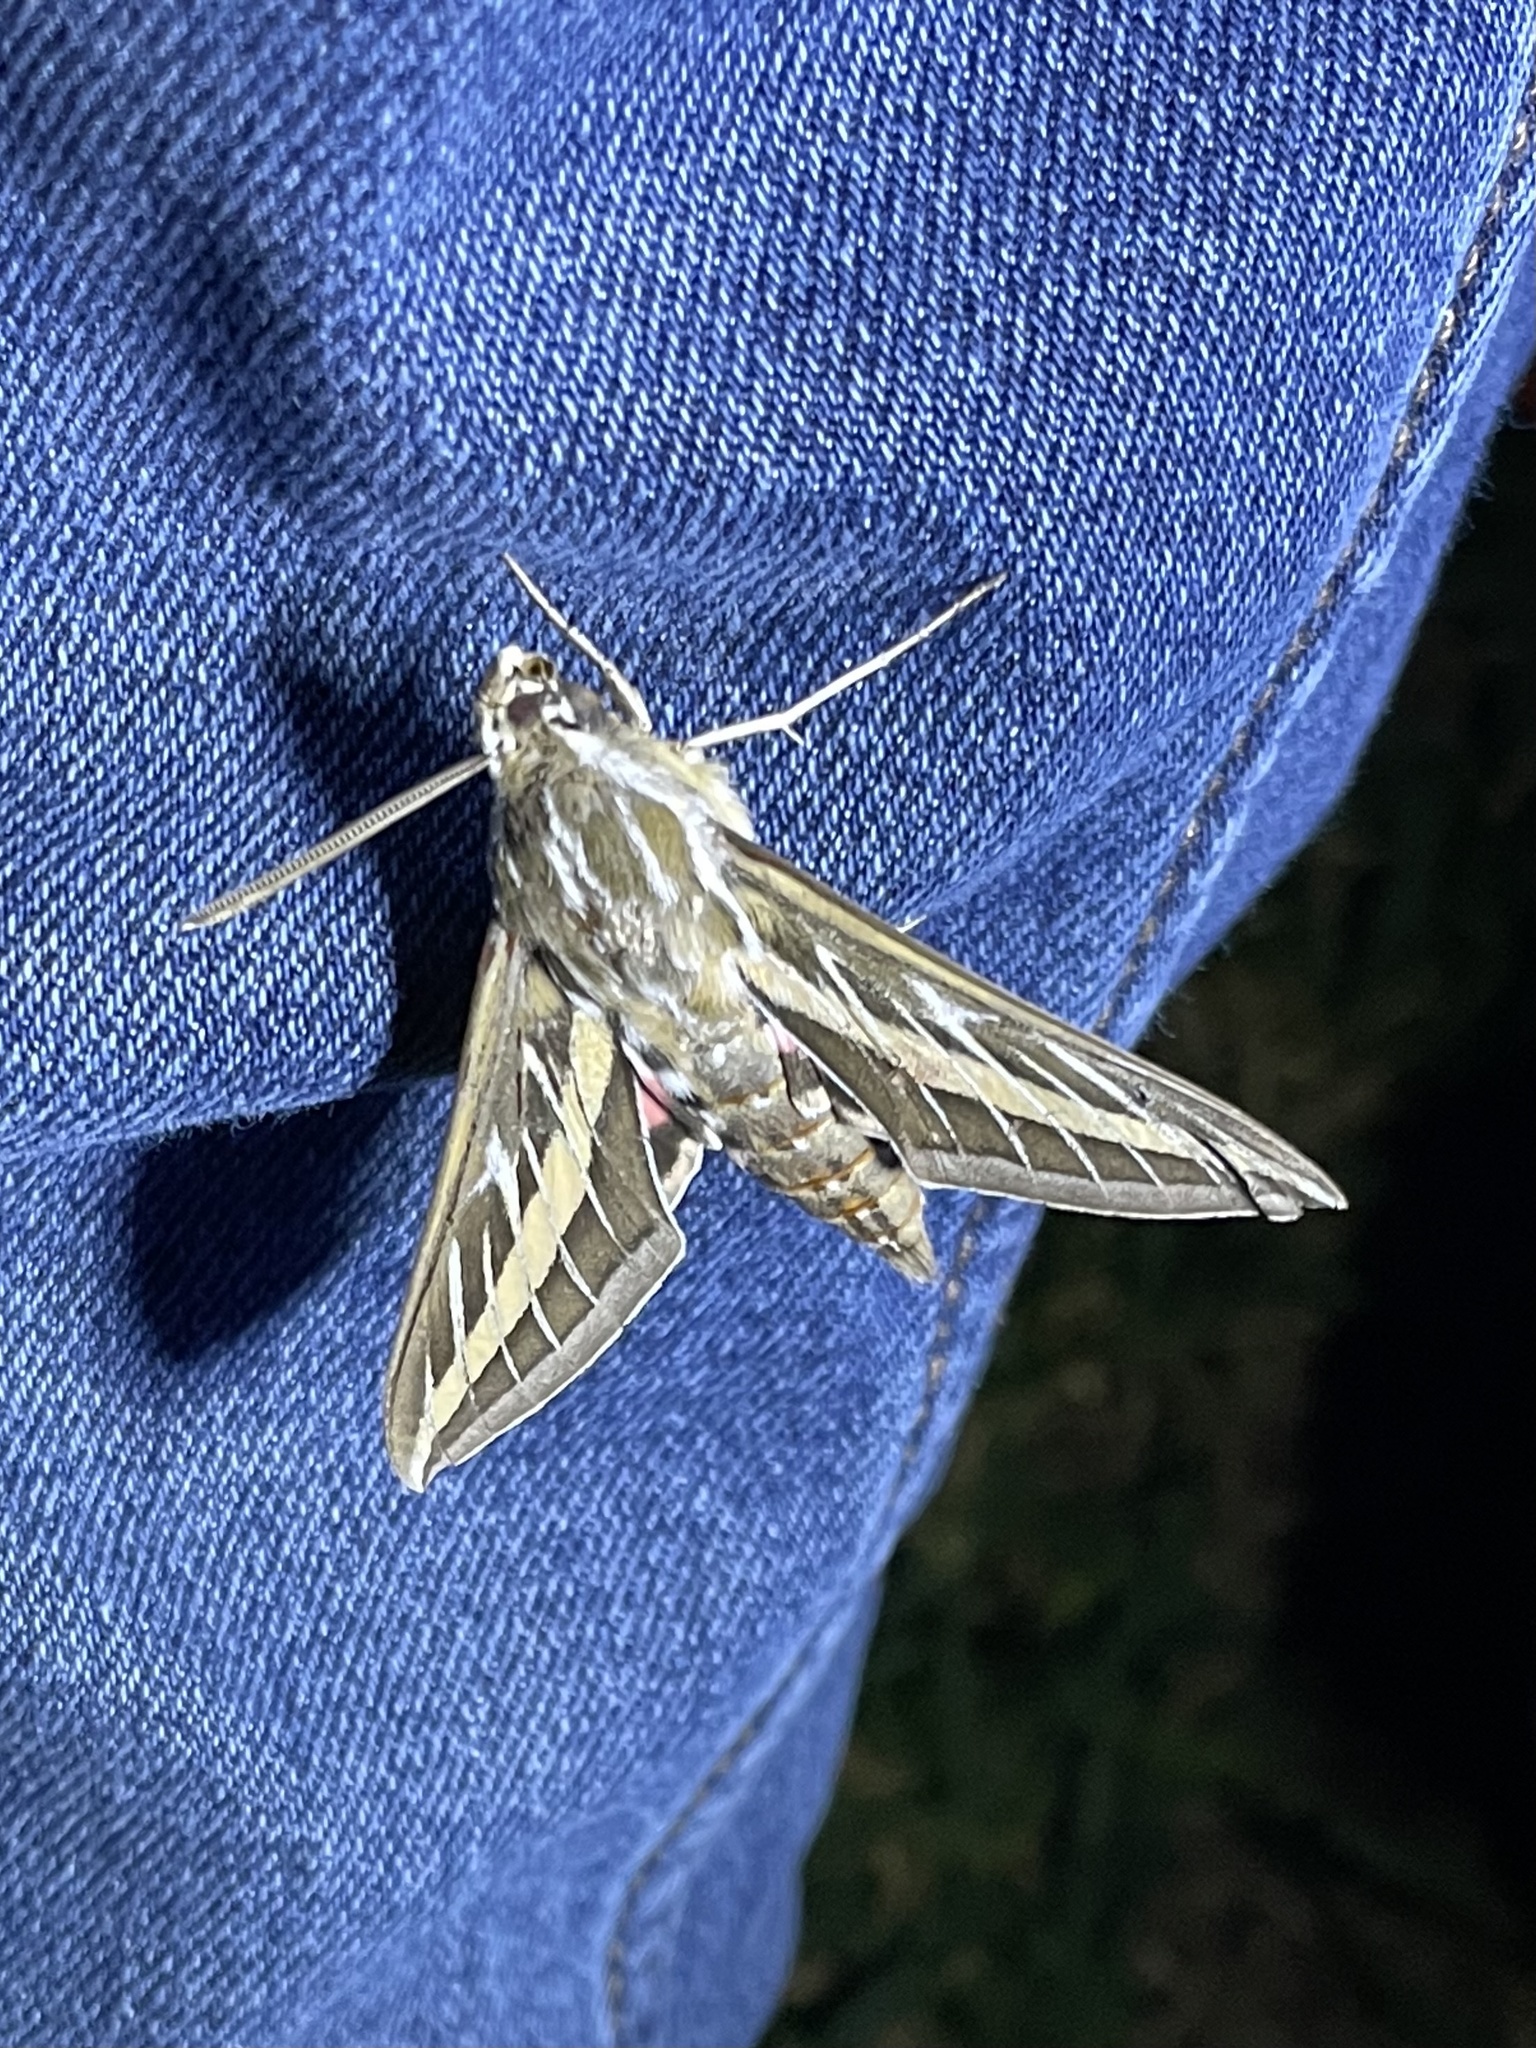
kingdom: Animalia
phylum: Arthropoda
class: Insecta
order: Lepidoptera
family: Sphingidae
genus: Hyles
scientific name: Hyles lineata
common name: White-lined sphinx
